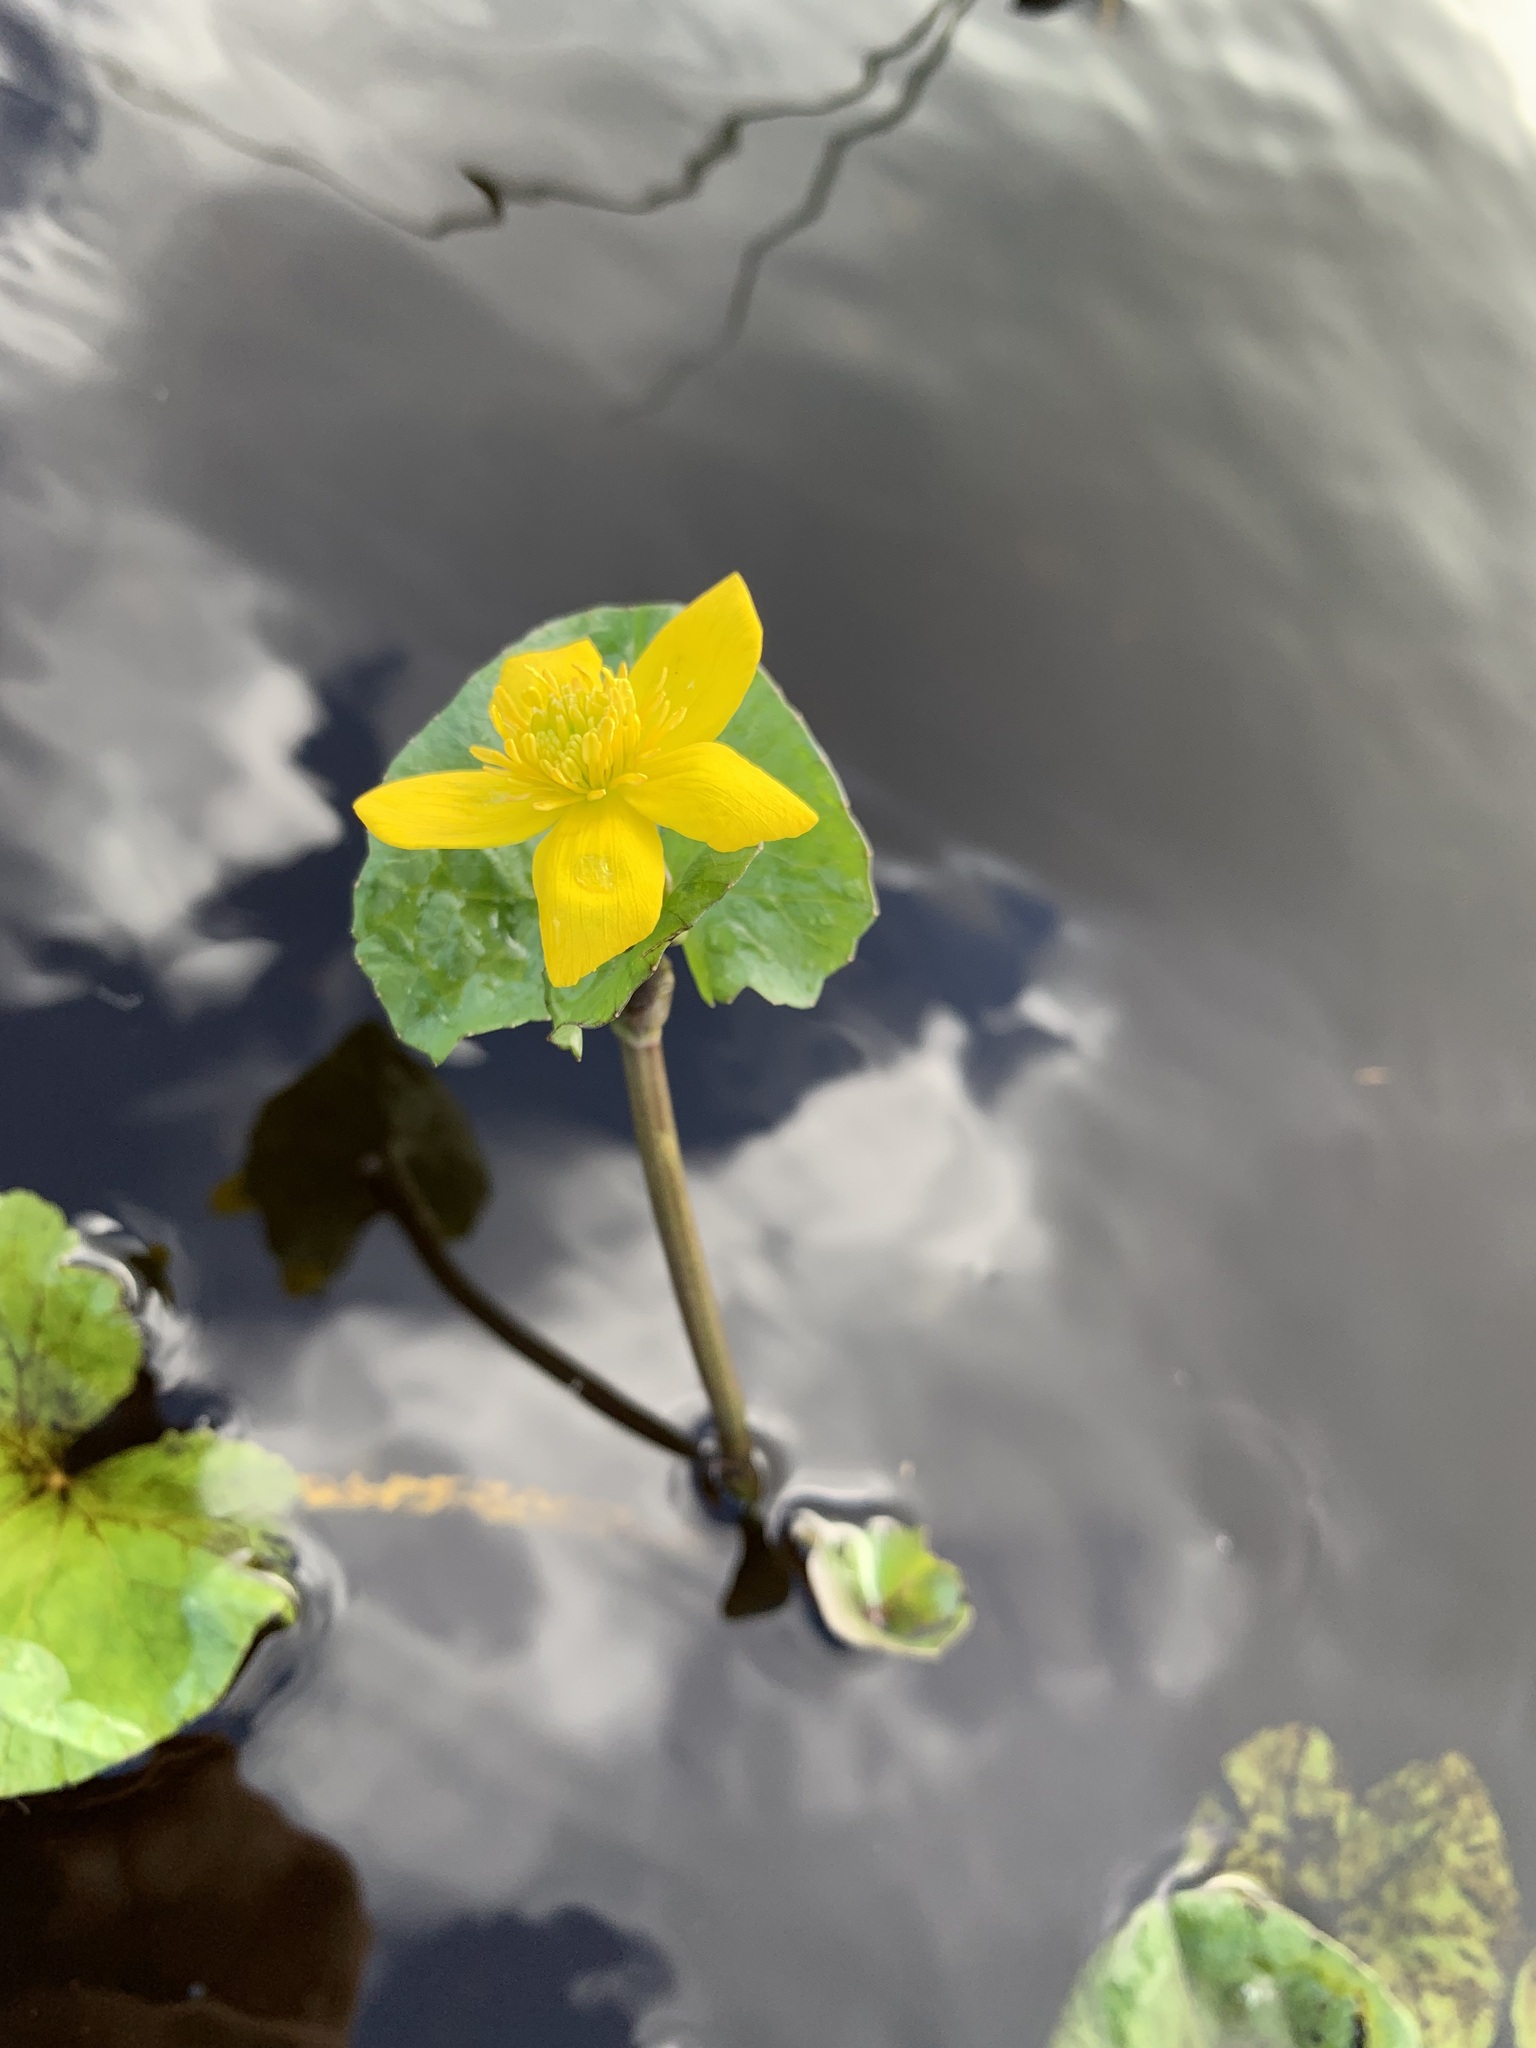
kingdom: Plantae
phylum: Tracheophyta
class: Magnoliopsida
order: Ranunculales
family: Ranunculaceae
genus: Caltha
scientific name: Caltha palustris
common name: Marsh marigold
